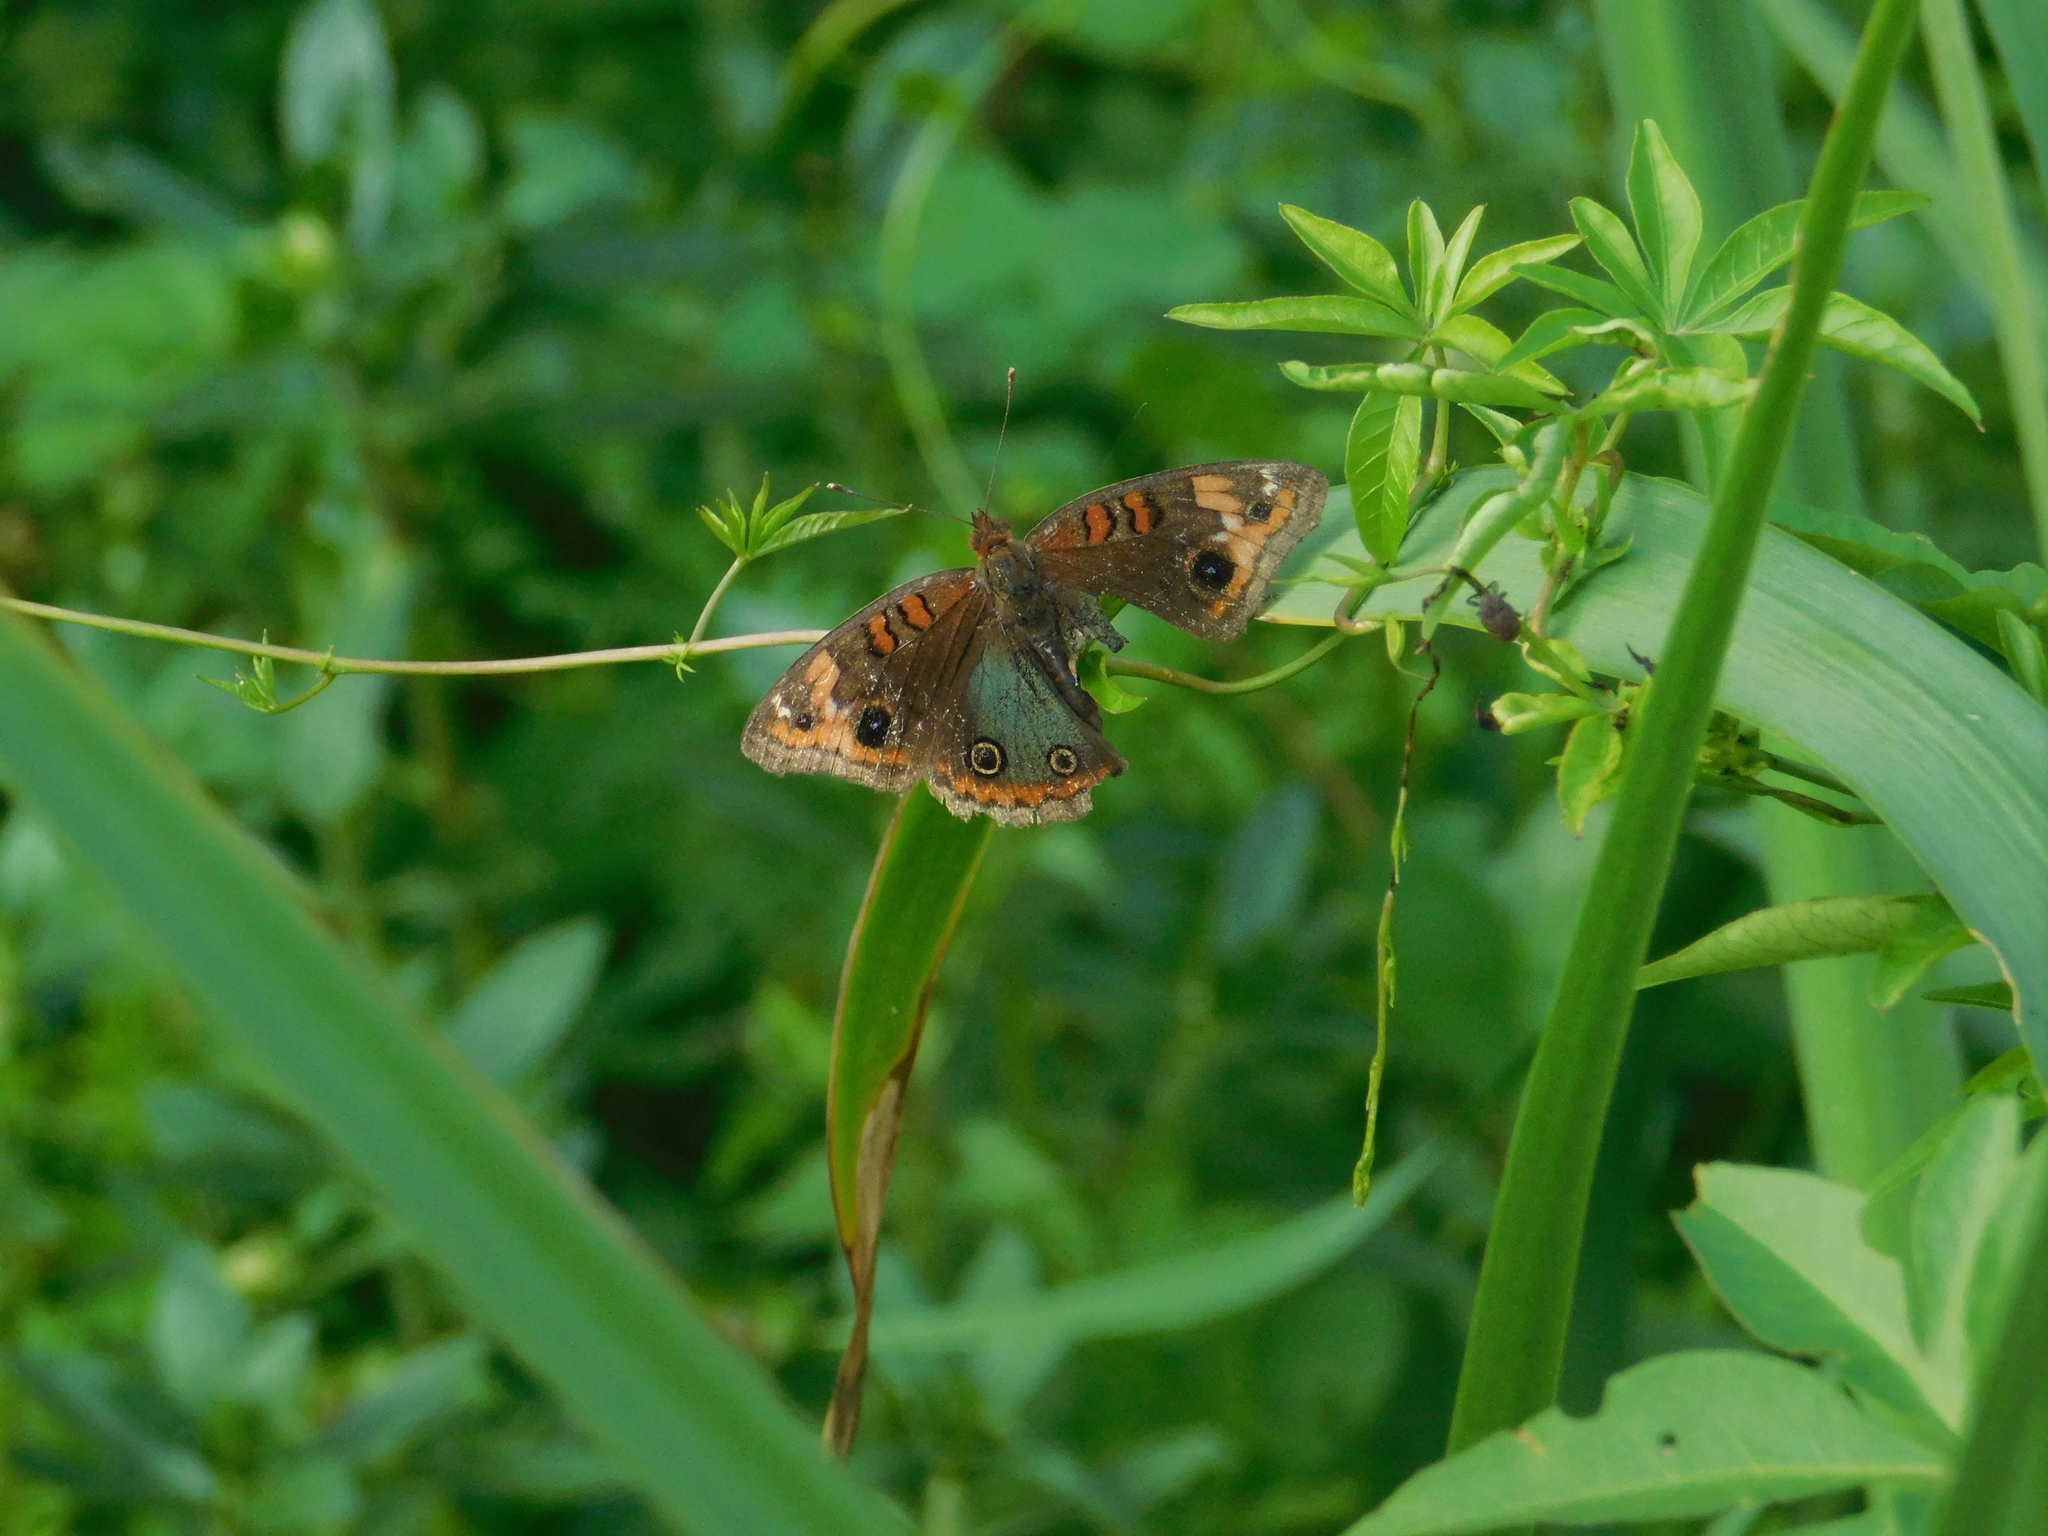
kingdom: Animalia
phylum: Arthropoda
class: Insecta
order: Lepidoptera
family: Nymphalidae
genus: Junonia
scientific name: Junonia lavinia
